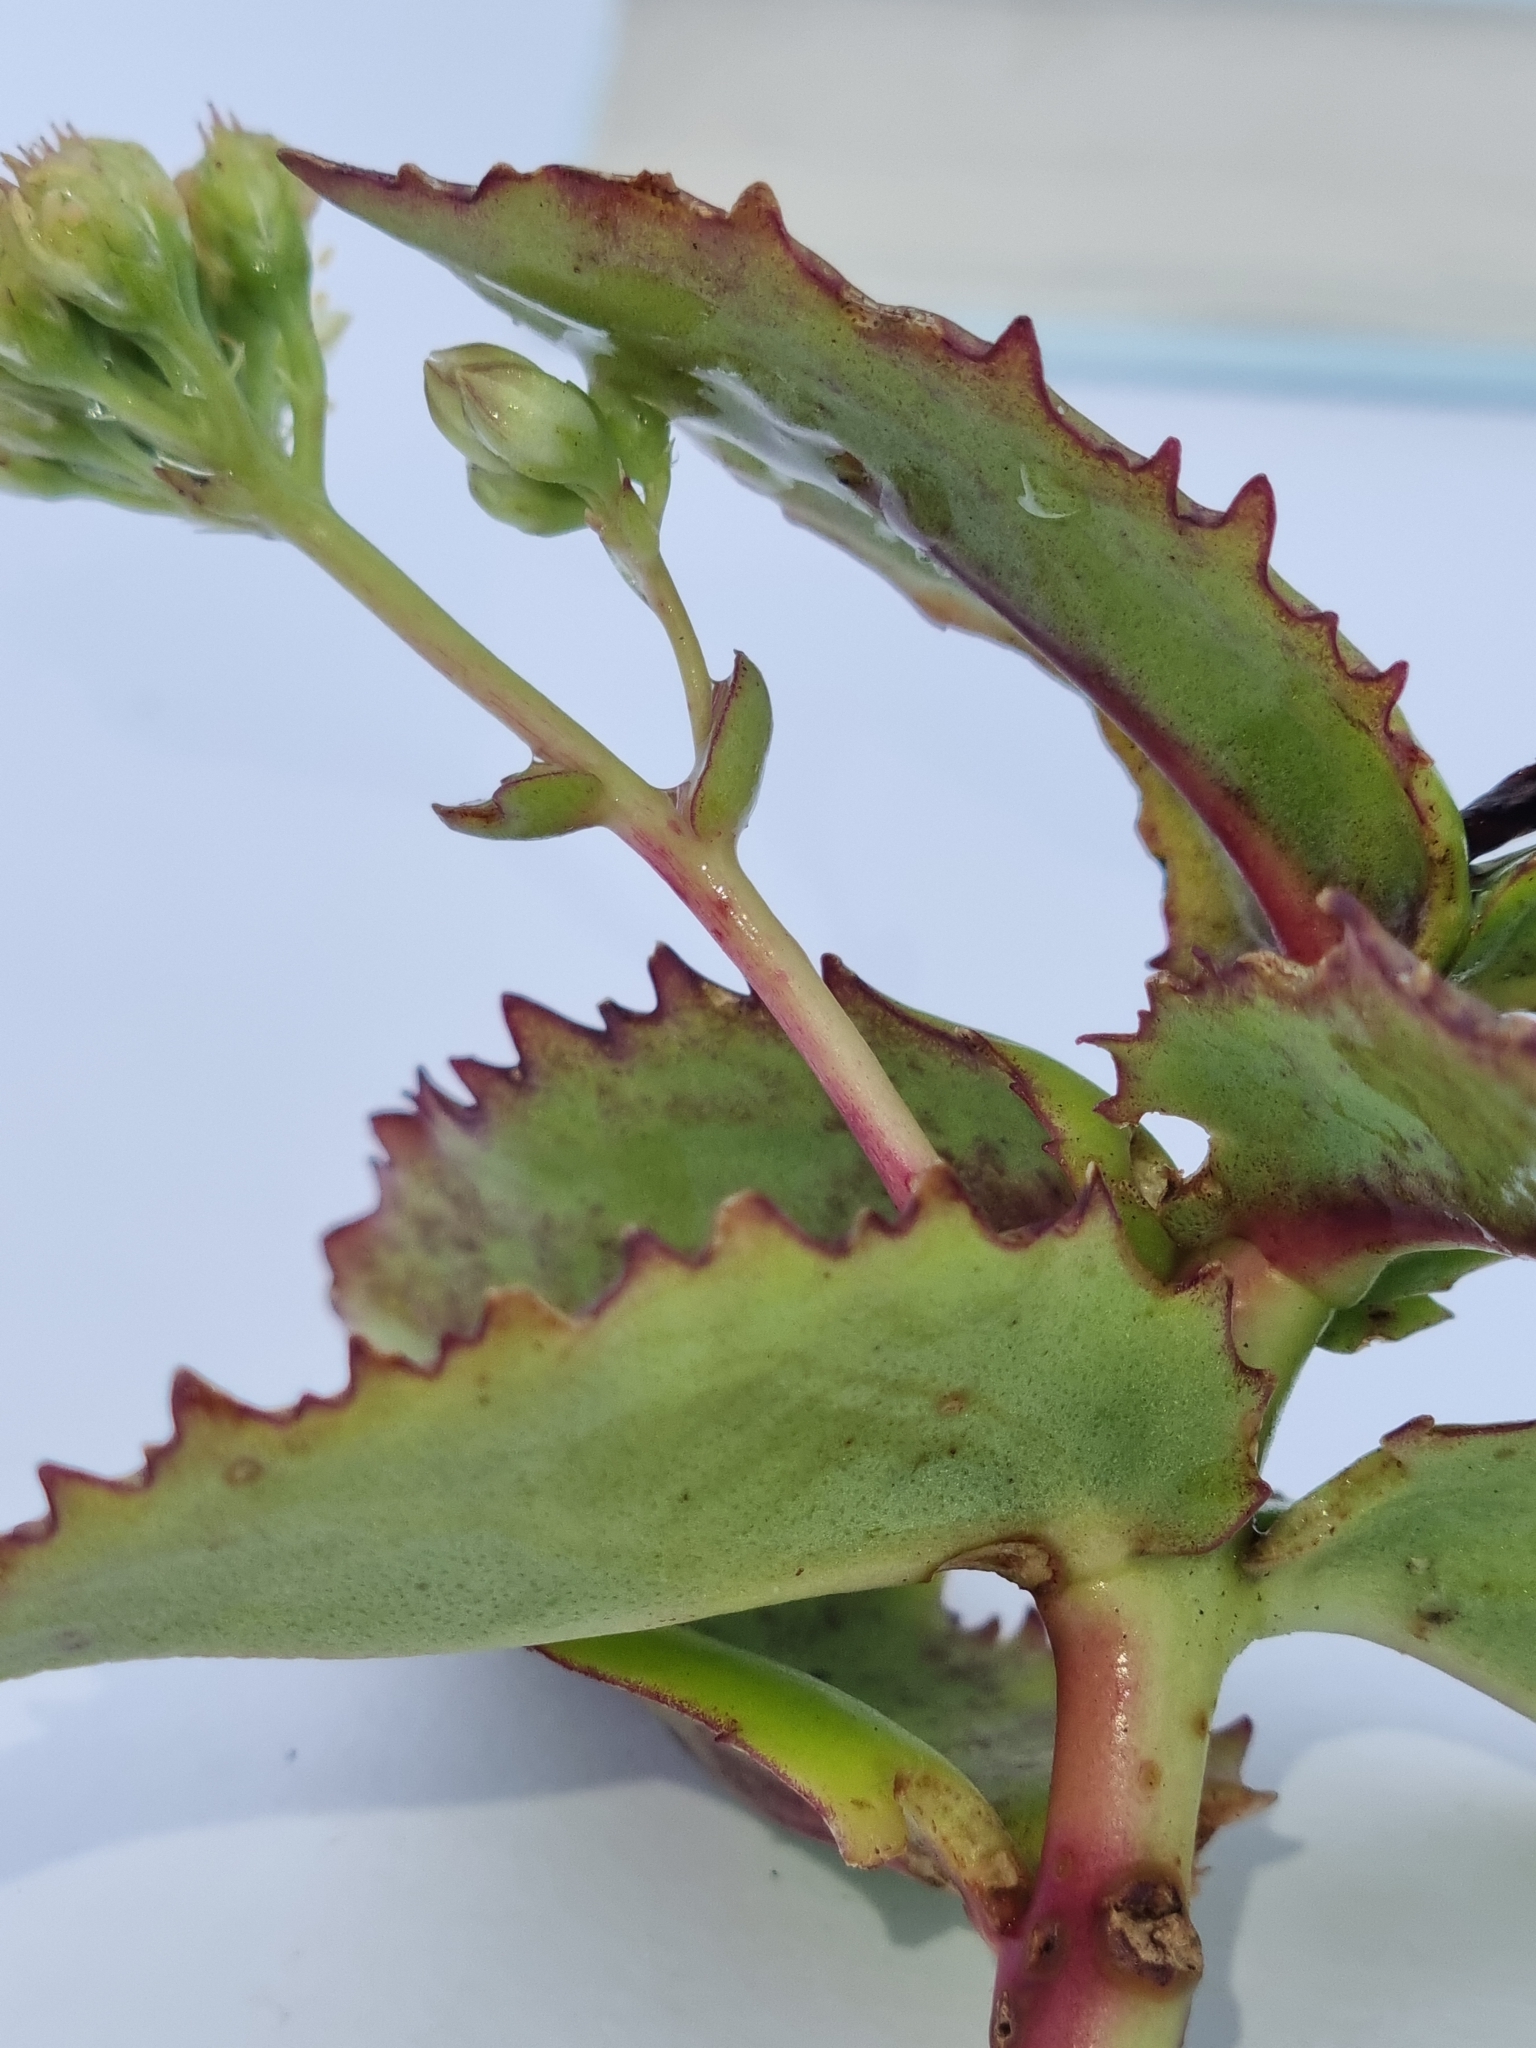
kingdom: Plantae
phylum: Tracheophyta
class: Magnoliopsida
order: Saxifragales
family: Crassulaceae
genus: Hylotelephium
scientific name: Hylotelephium maximum
